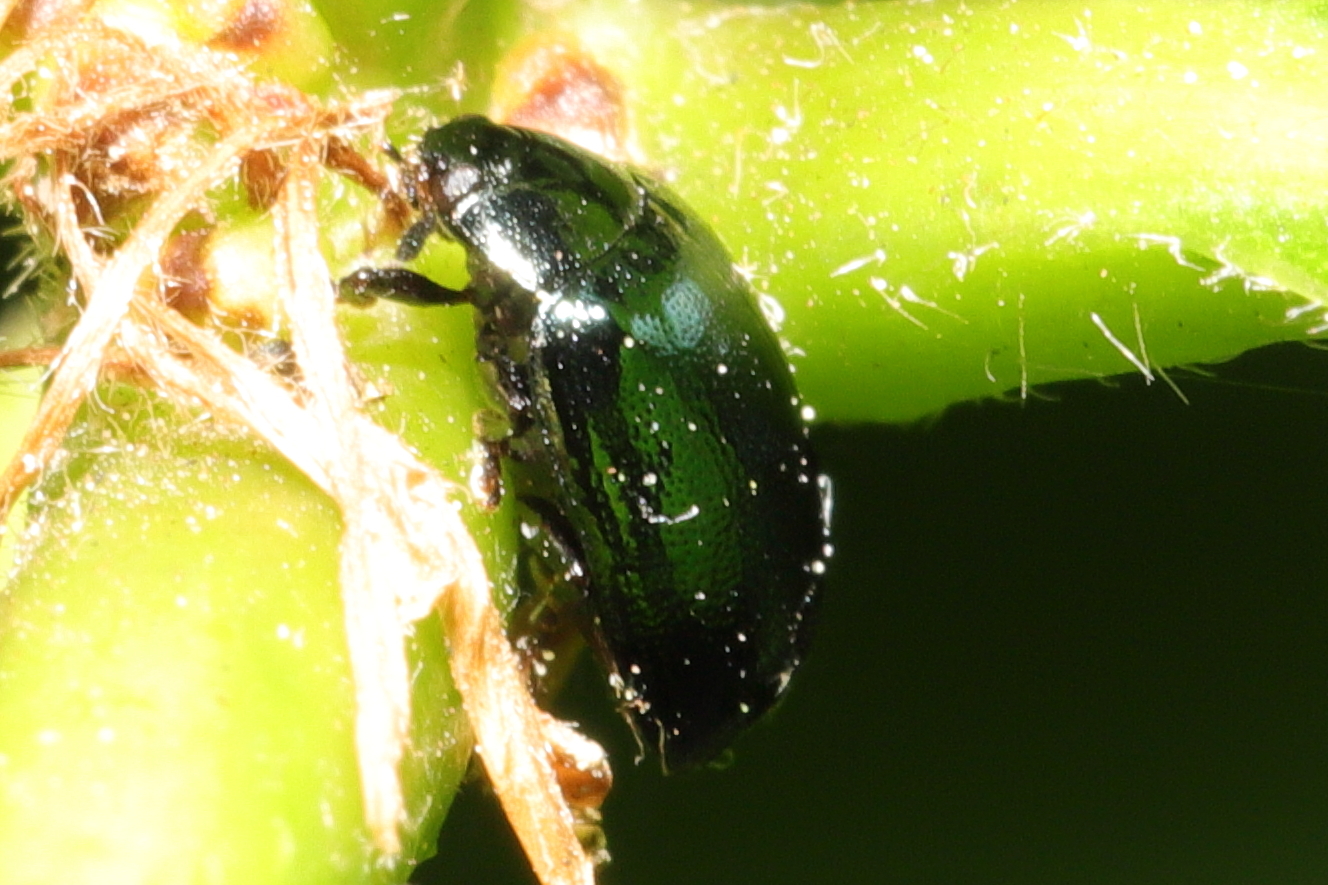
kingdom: Animalia
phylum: Arthropoda
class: Insecta
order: Coleoptera
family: Chrysomelidae
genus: Plagiodera
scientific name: Plagiodera versicolora
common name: Imported willow leaf beetle
